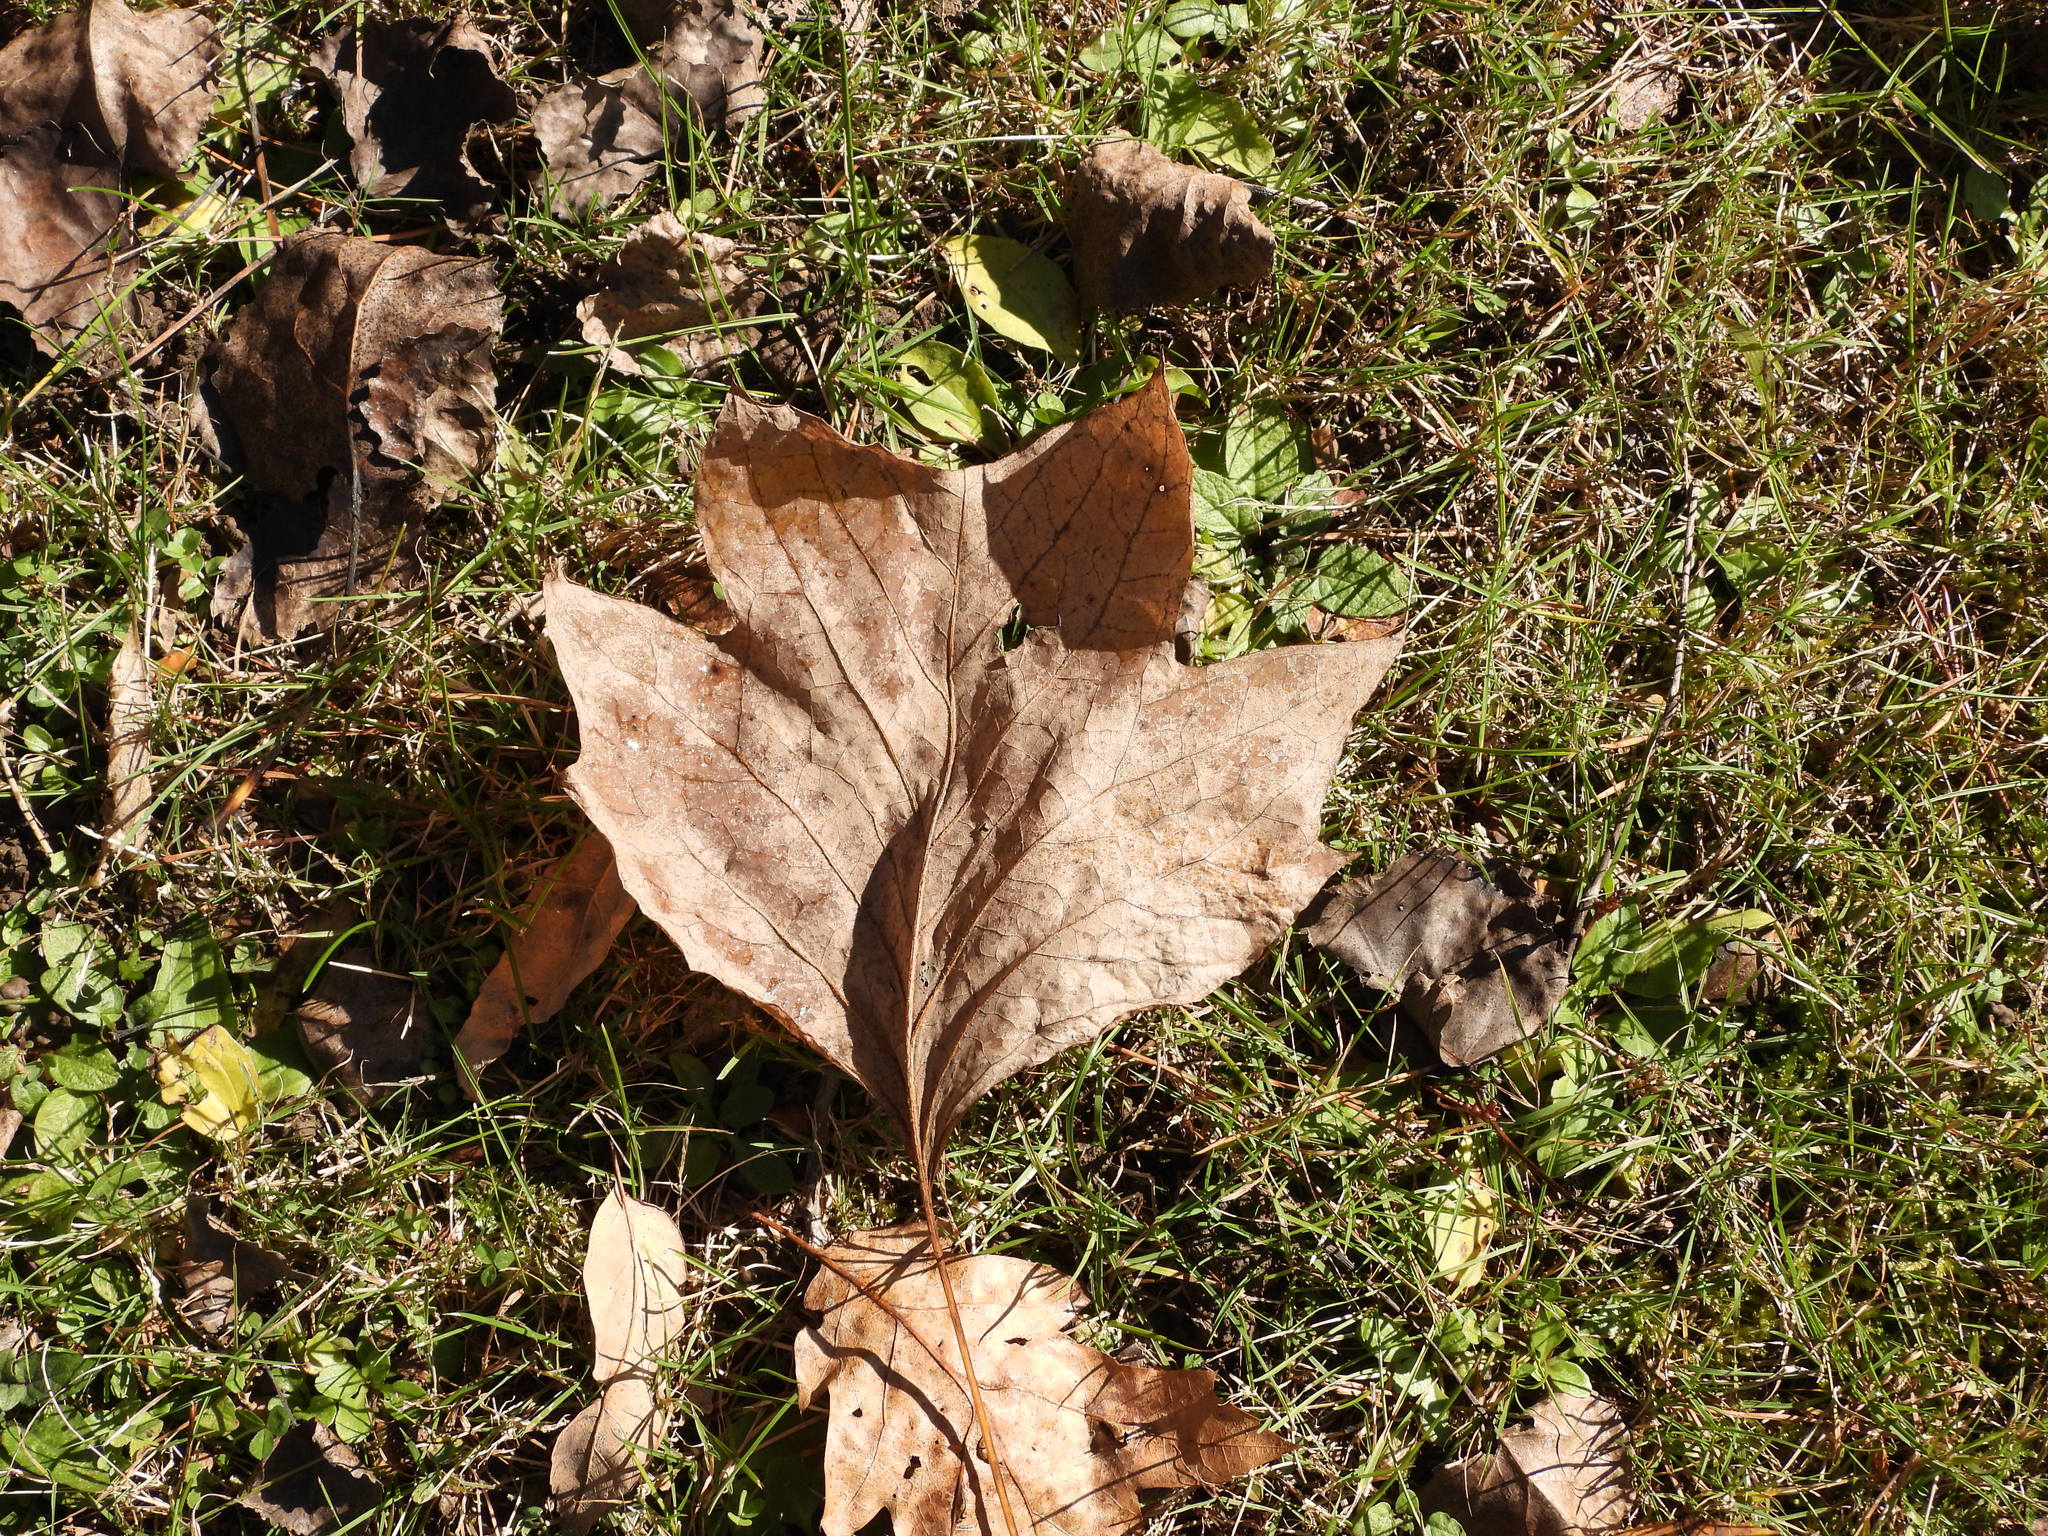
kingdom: Plantae
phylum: Tracheophyta
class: Magnoliopsida
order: Magnoliales
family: Magnoliaceae
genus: Liriodendron
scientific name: Liriodendron tulipifera
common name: Tulip tree
